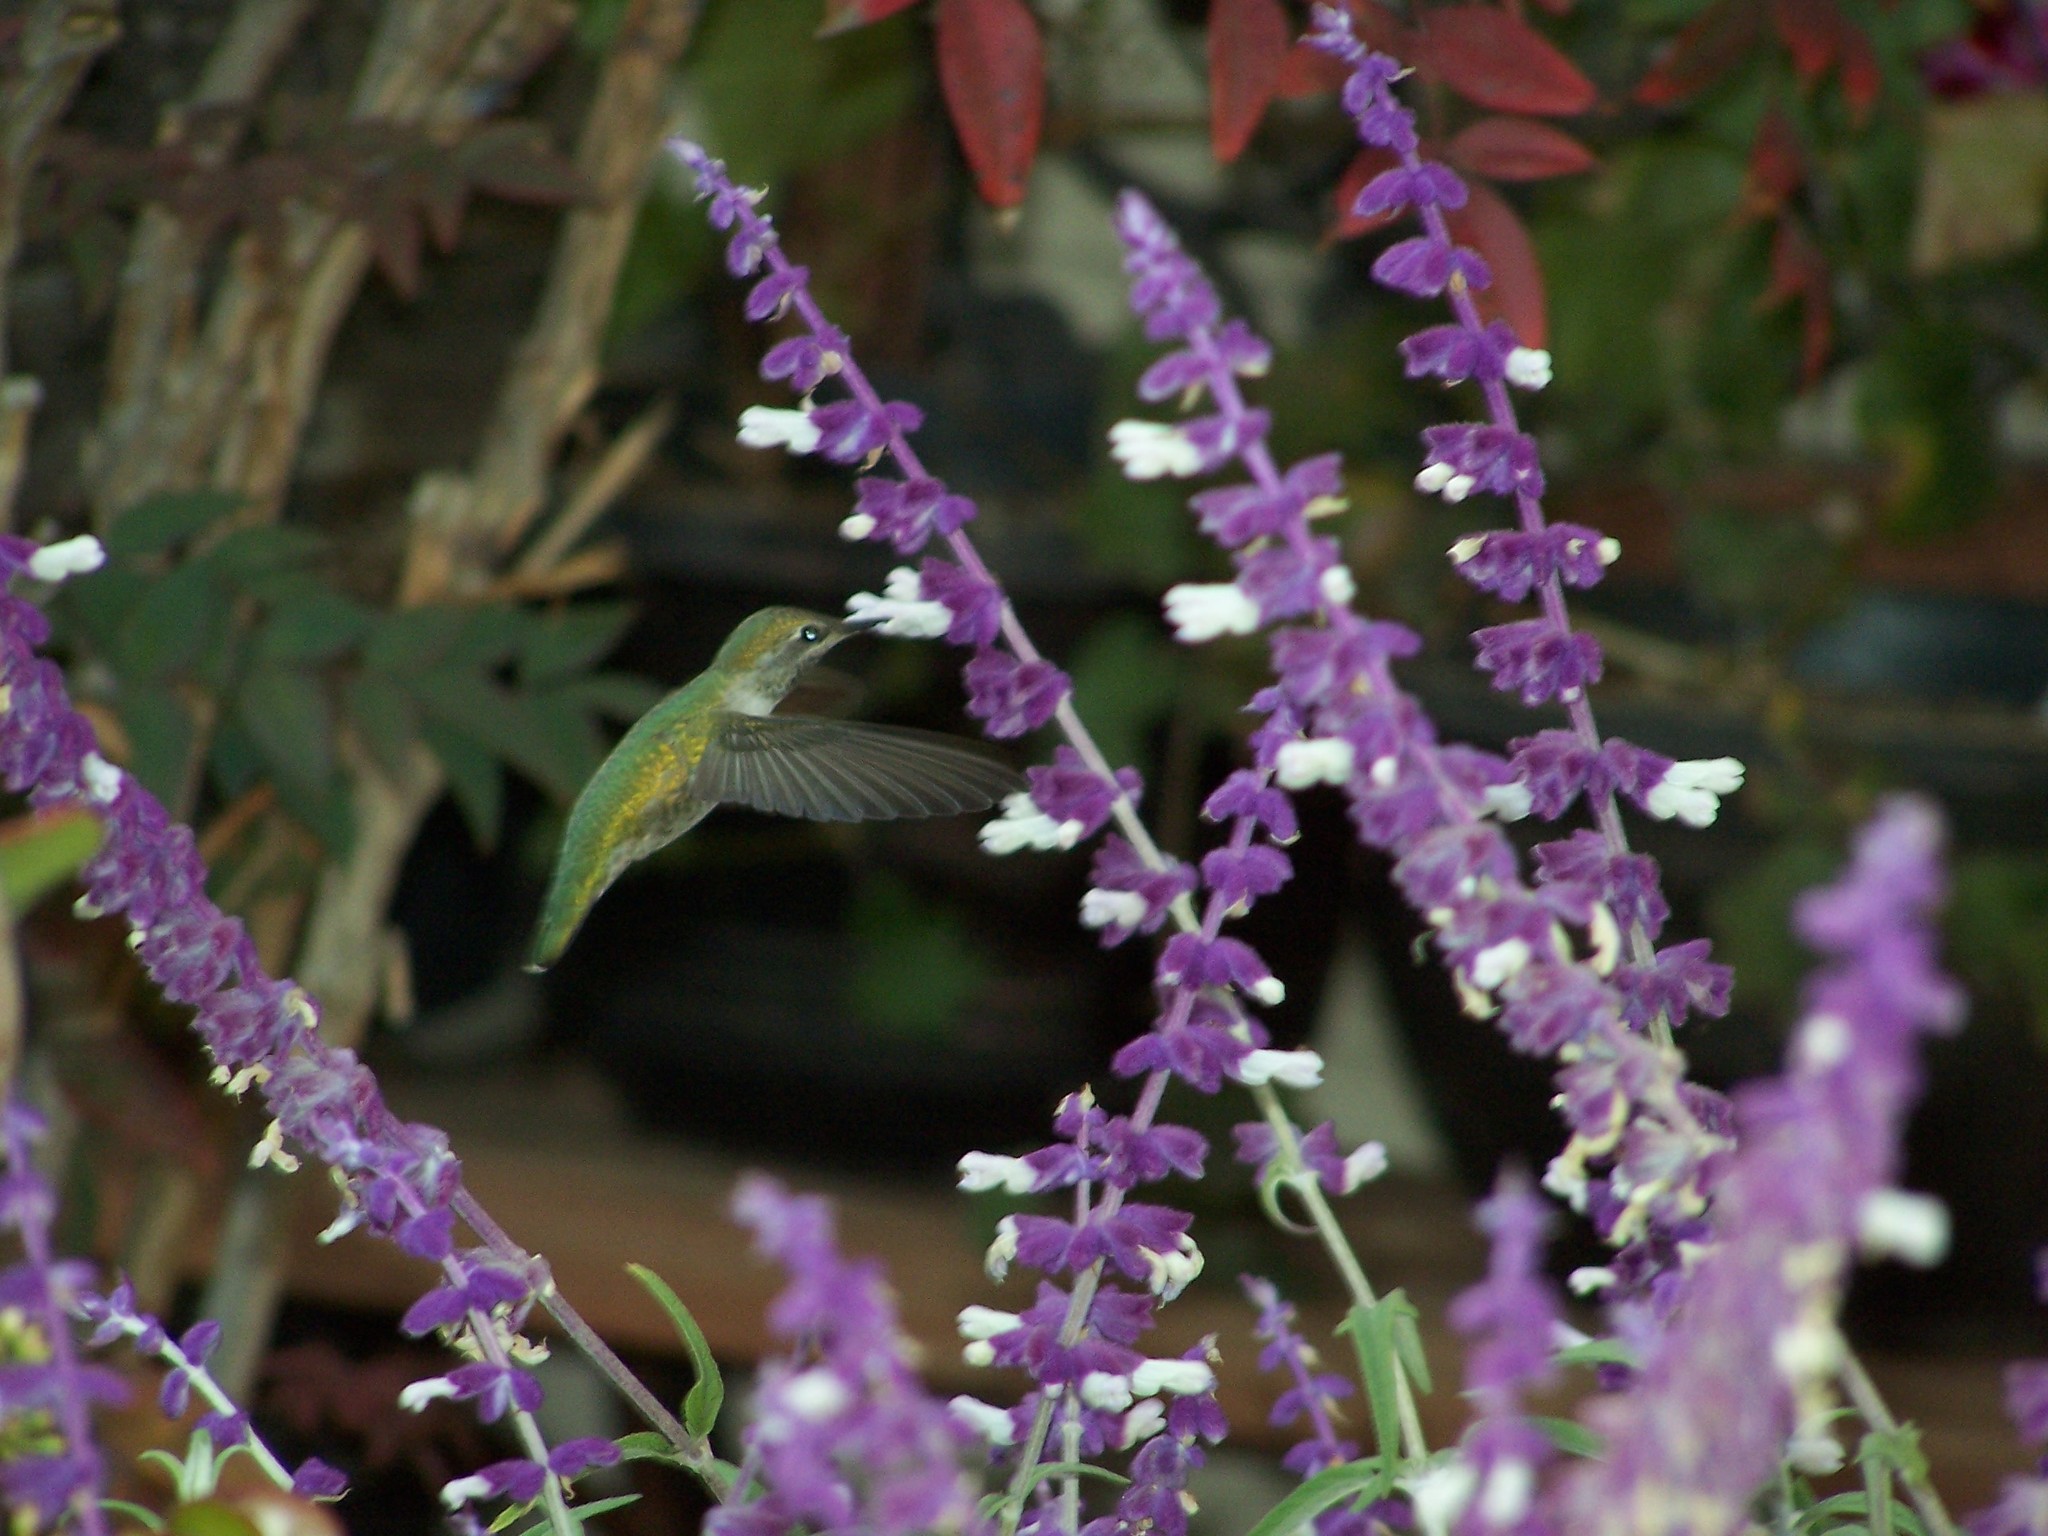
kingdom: Animalia
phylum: Chordata
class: Aves
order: Apodiformes
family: Trochilidae
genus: Calypte
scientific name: Calypte anna
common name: Anna's hummingbird
